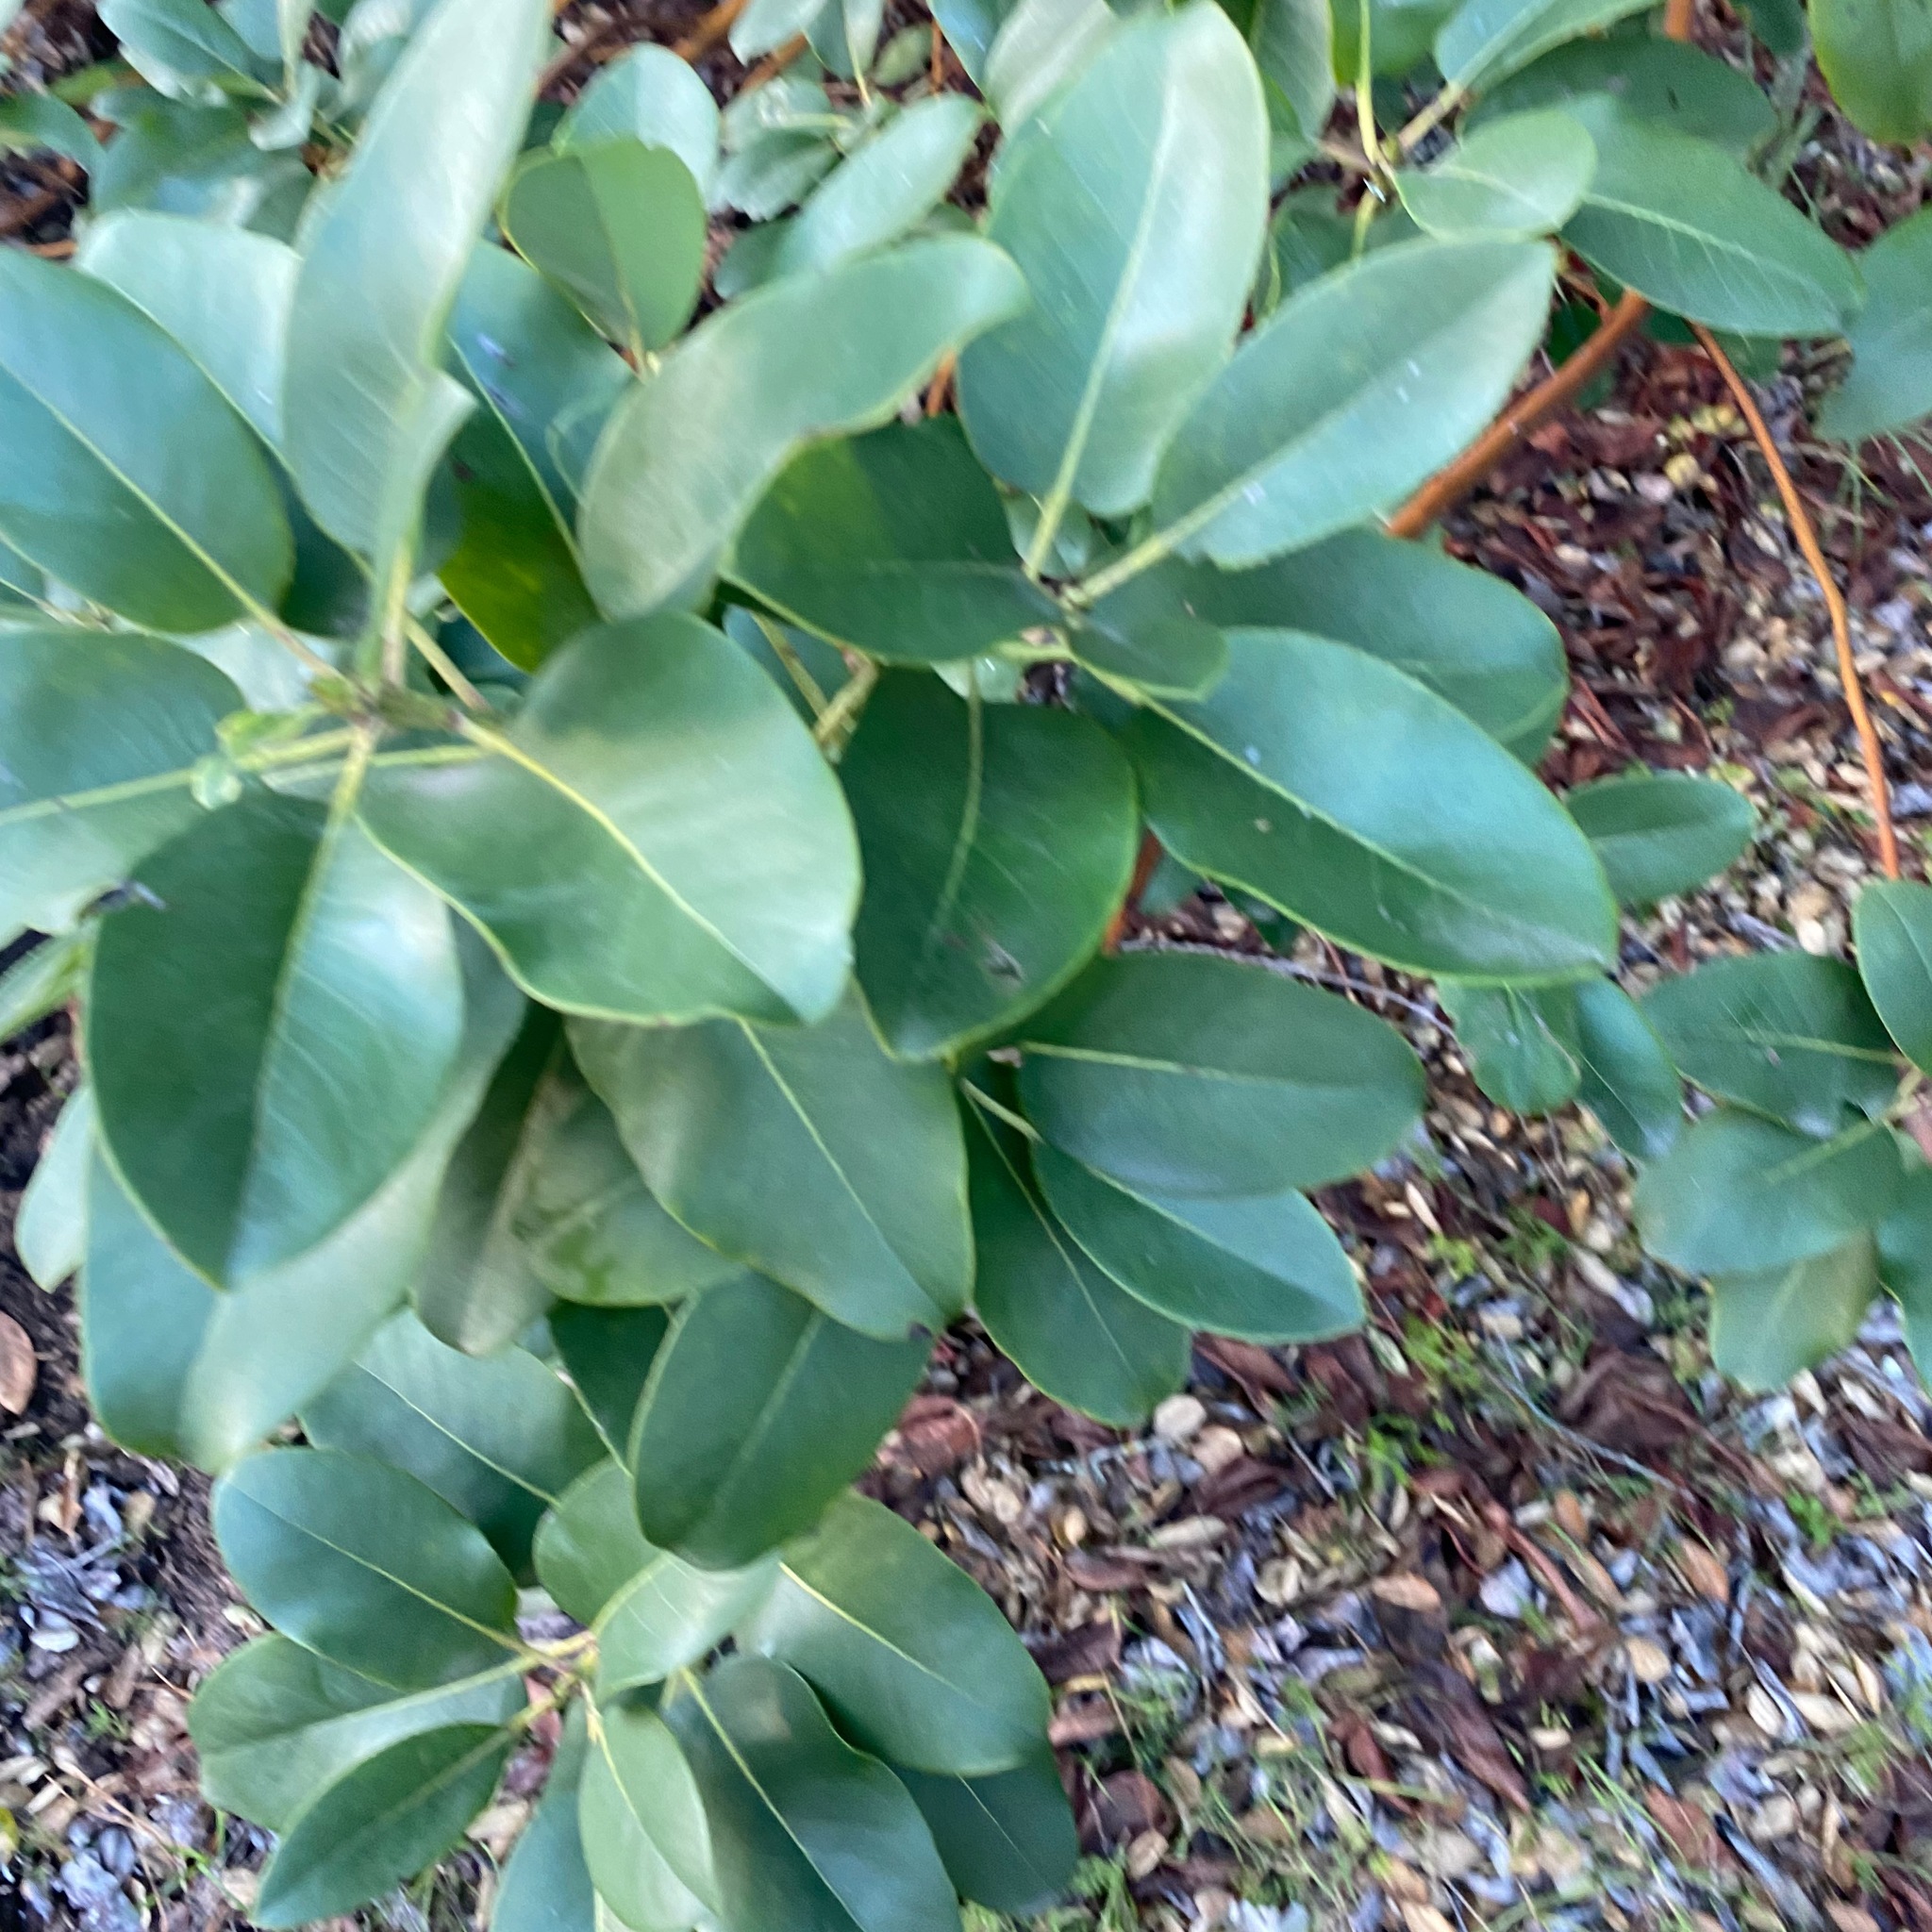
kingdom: Plantae
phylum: Tracheophyta
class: Magnoliopsida
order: Ericales
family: Ericaceae
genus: Arbutus
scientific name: Arbutus menziesii
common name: Pacific madrone
